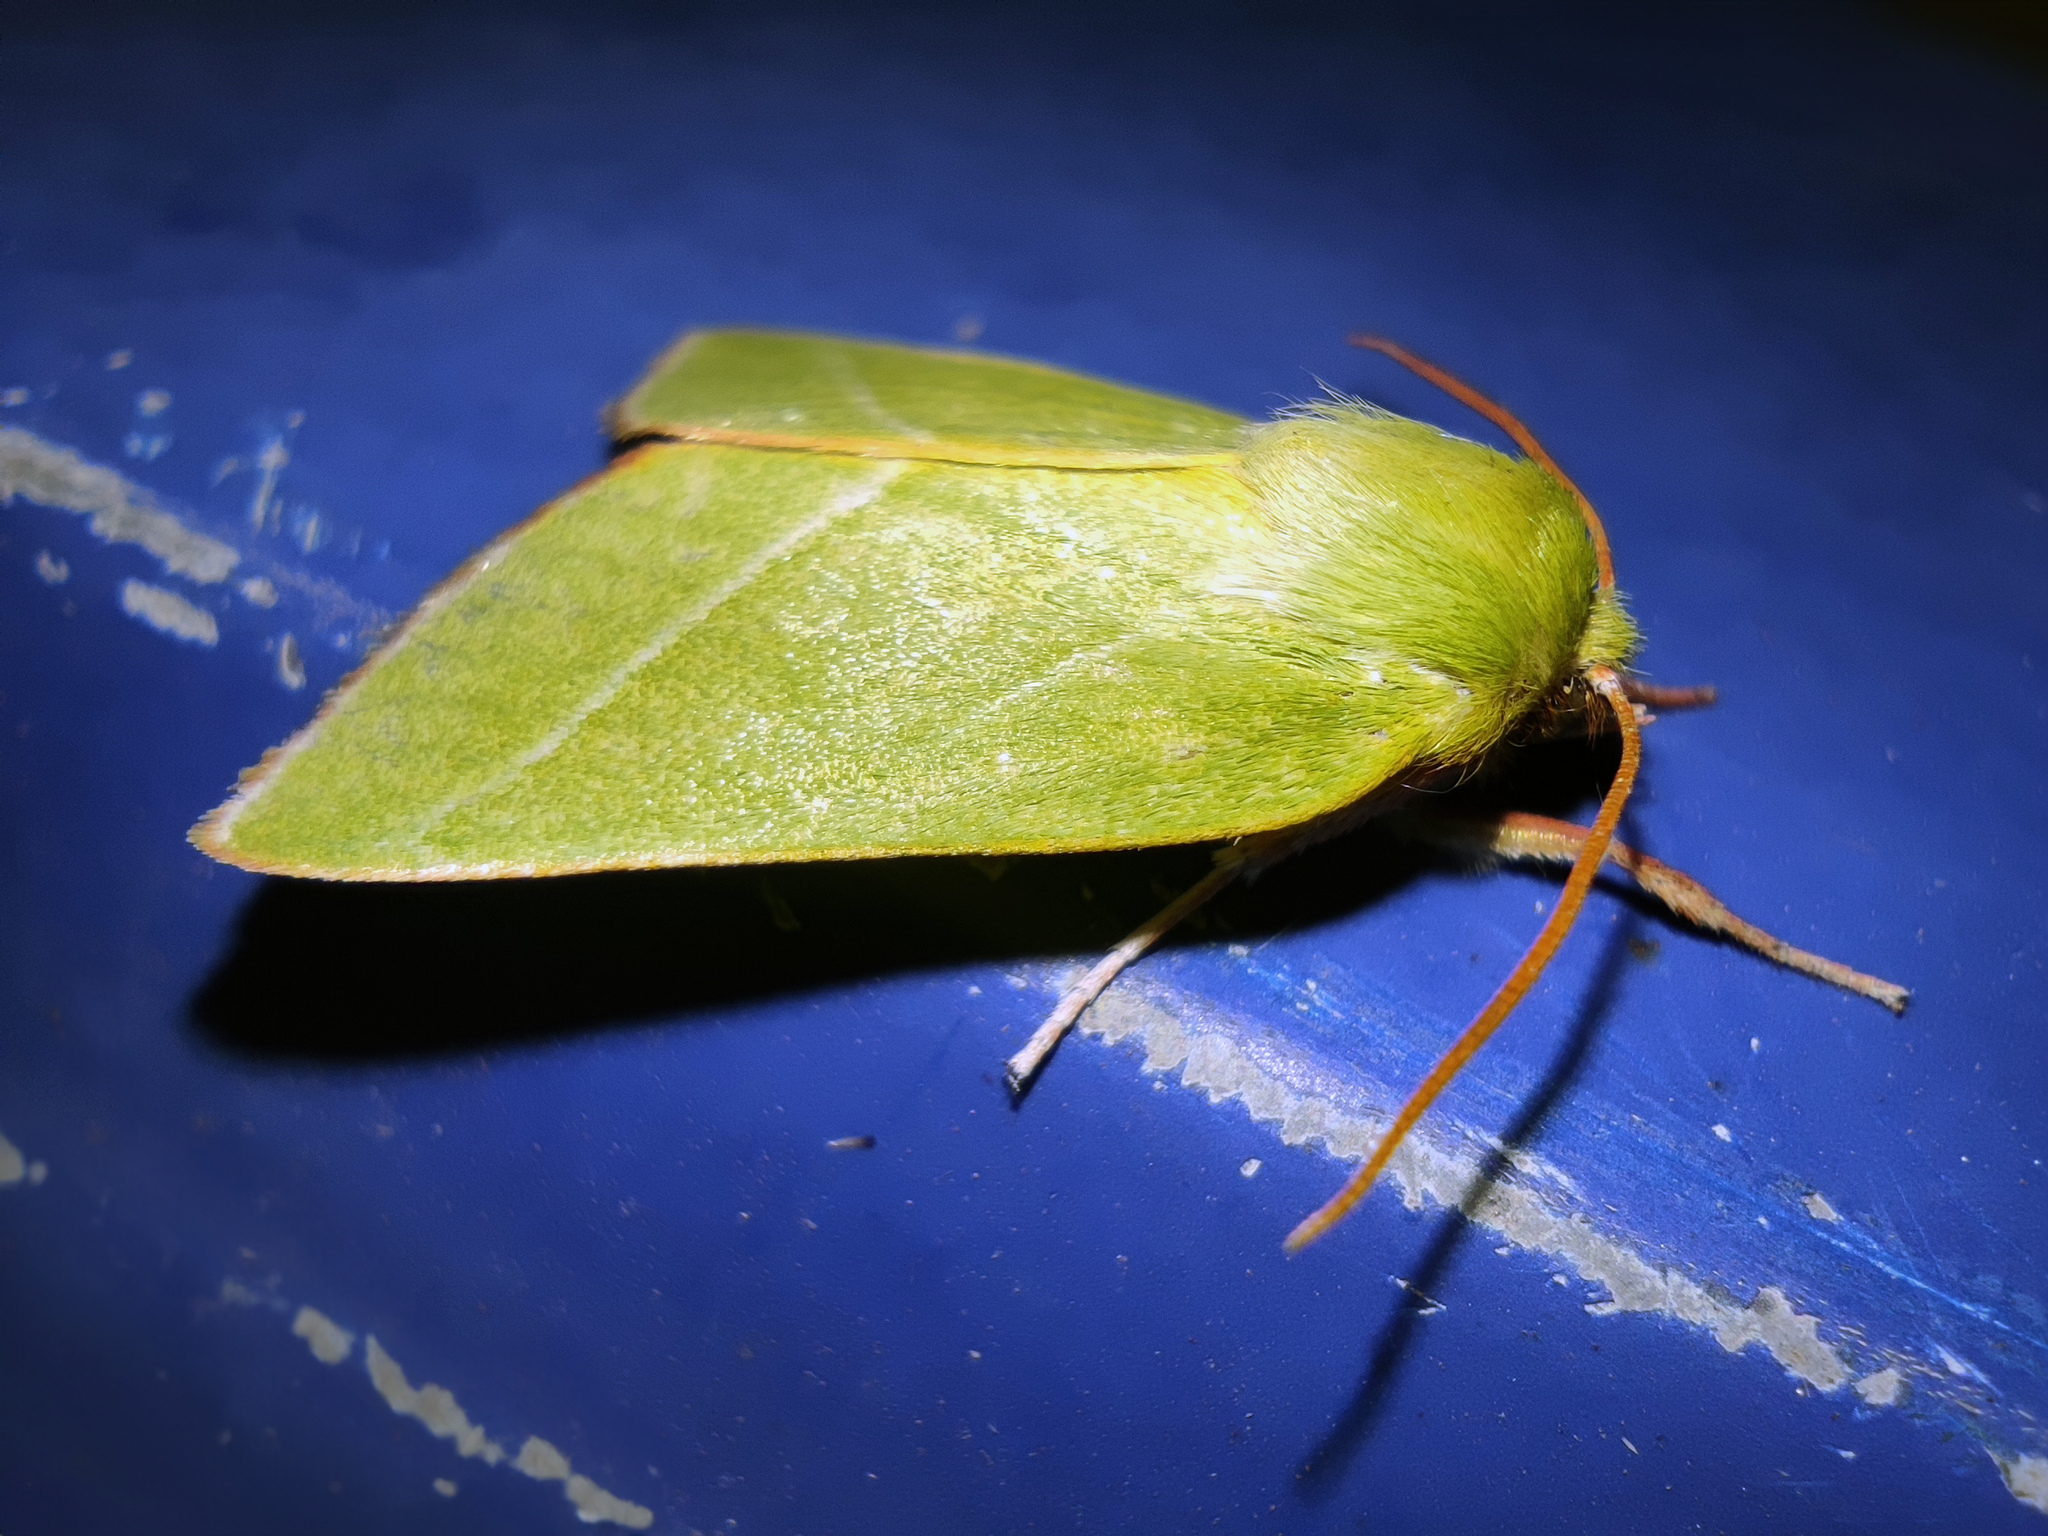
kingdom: Animalia
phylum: Arthropoda
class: Insecta
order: Lepidoptera
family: Nolidae
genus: Pseudoips
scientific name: Pseudoips prasinana
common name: Green silver-lines
